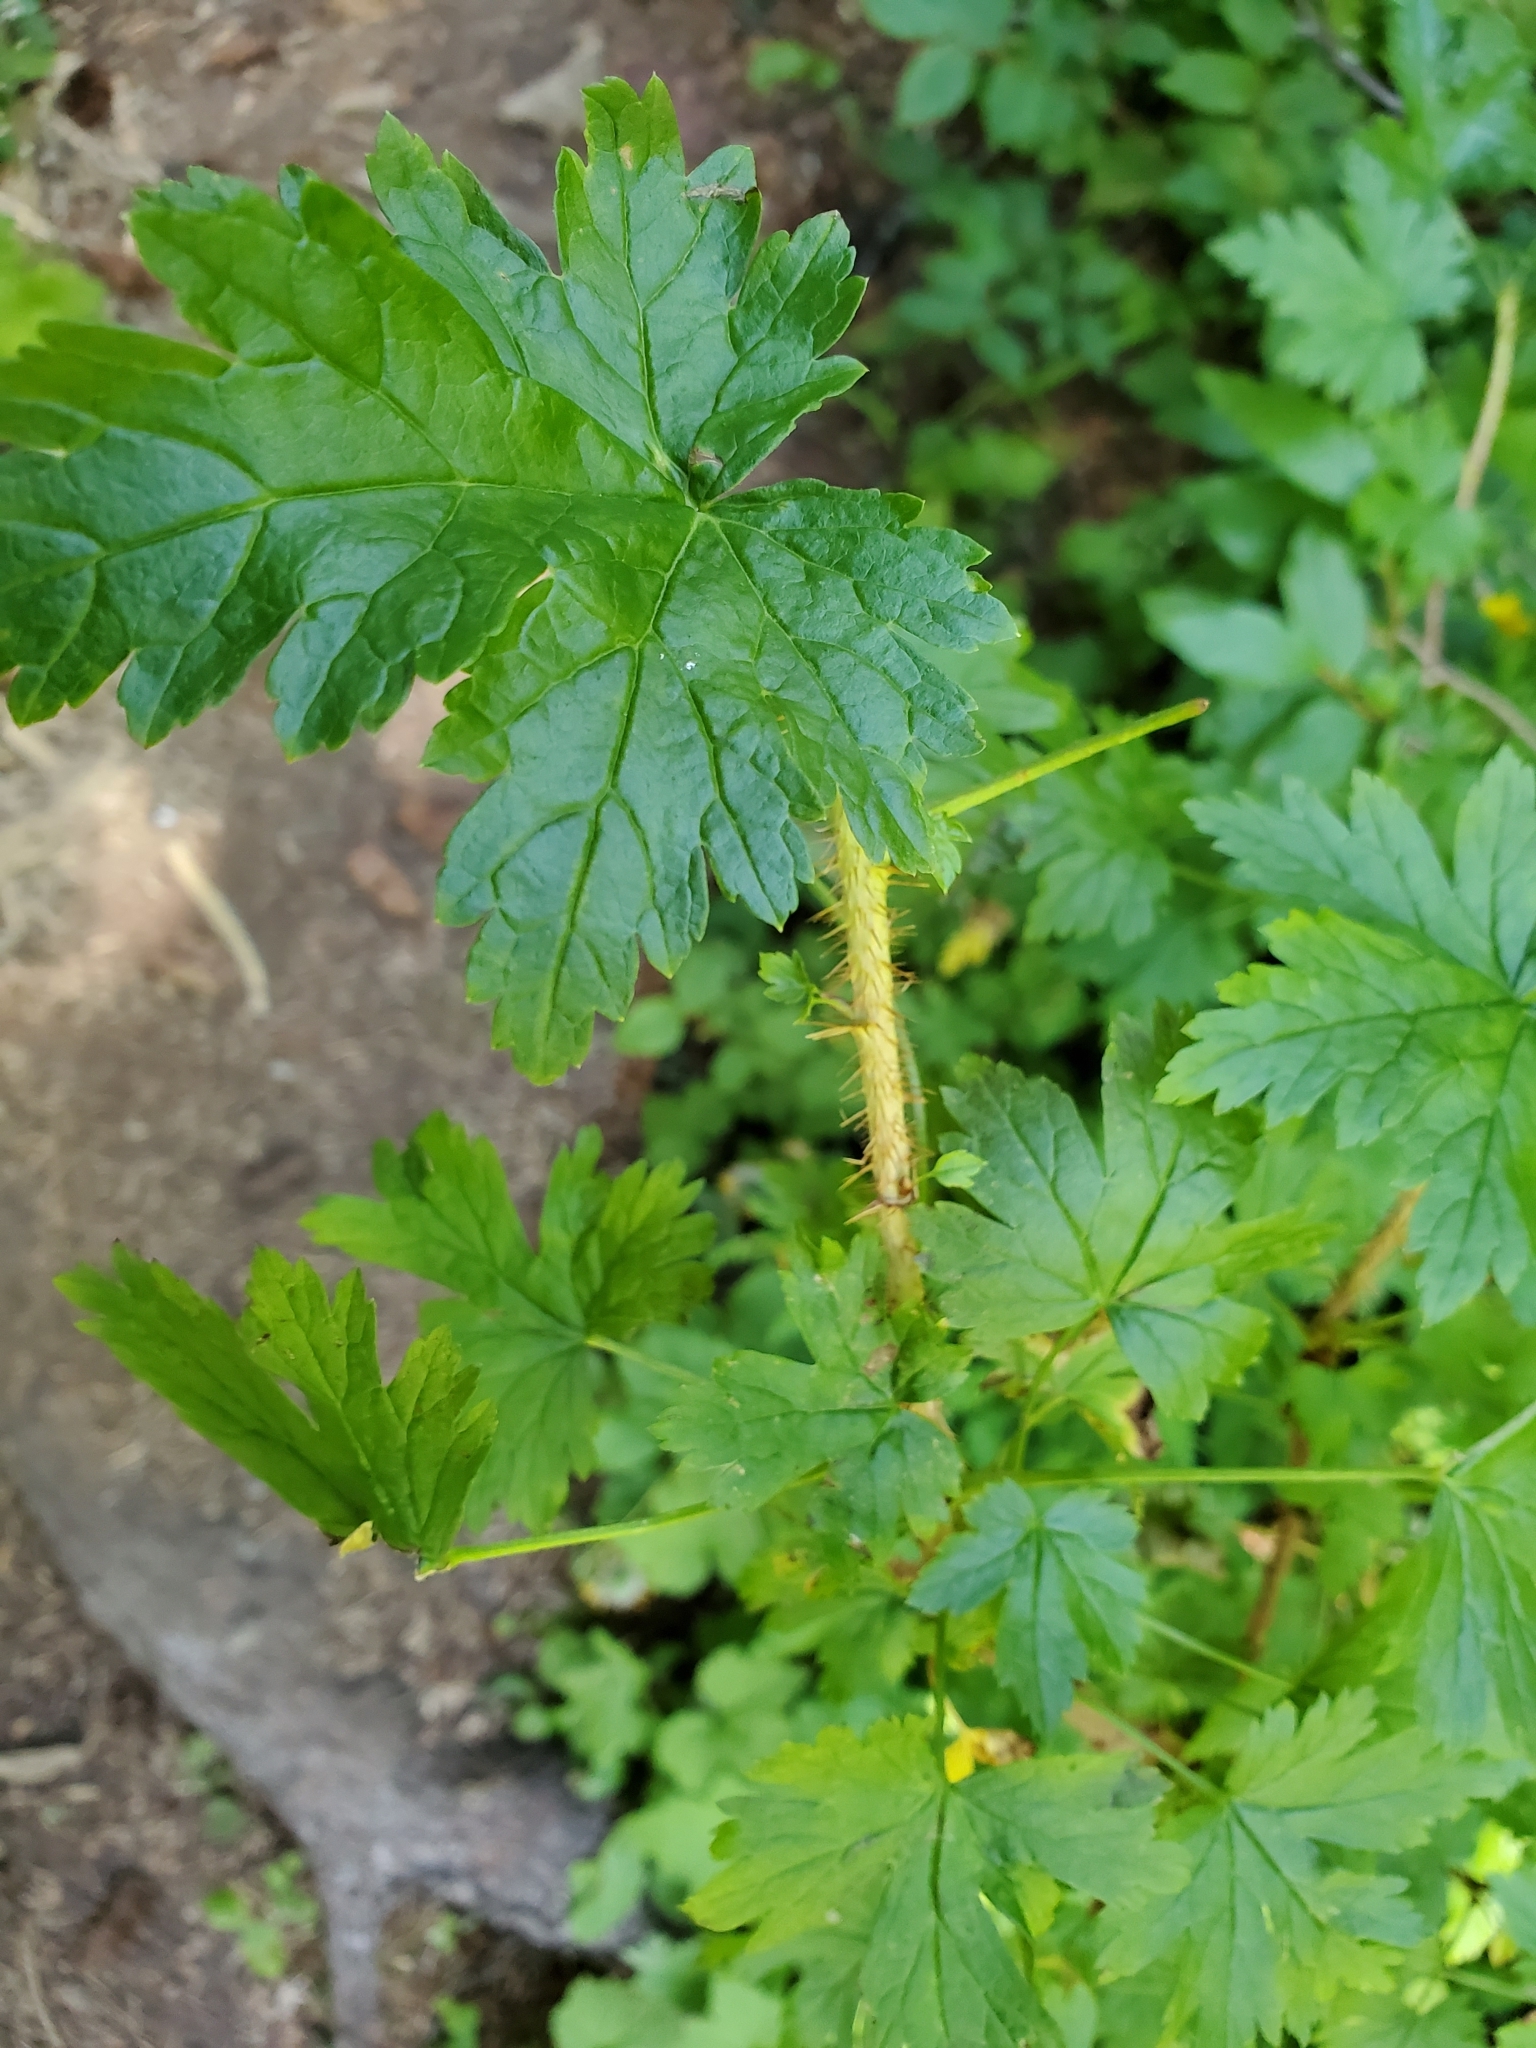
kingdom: Plantae
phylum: Tracheophyta
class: Magnoliopsida
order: Saxifragales
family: Grossulariaceae
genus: Ribes
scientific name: Ribes lacustre
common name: Black gooseberry
